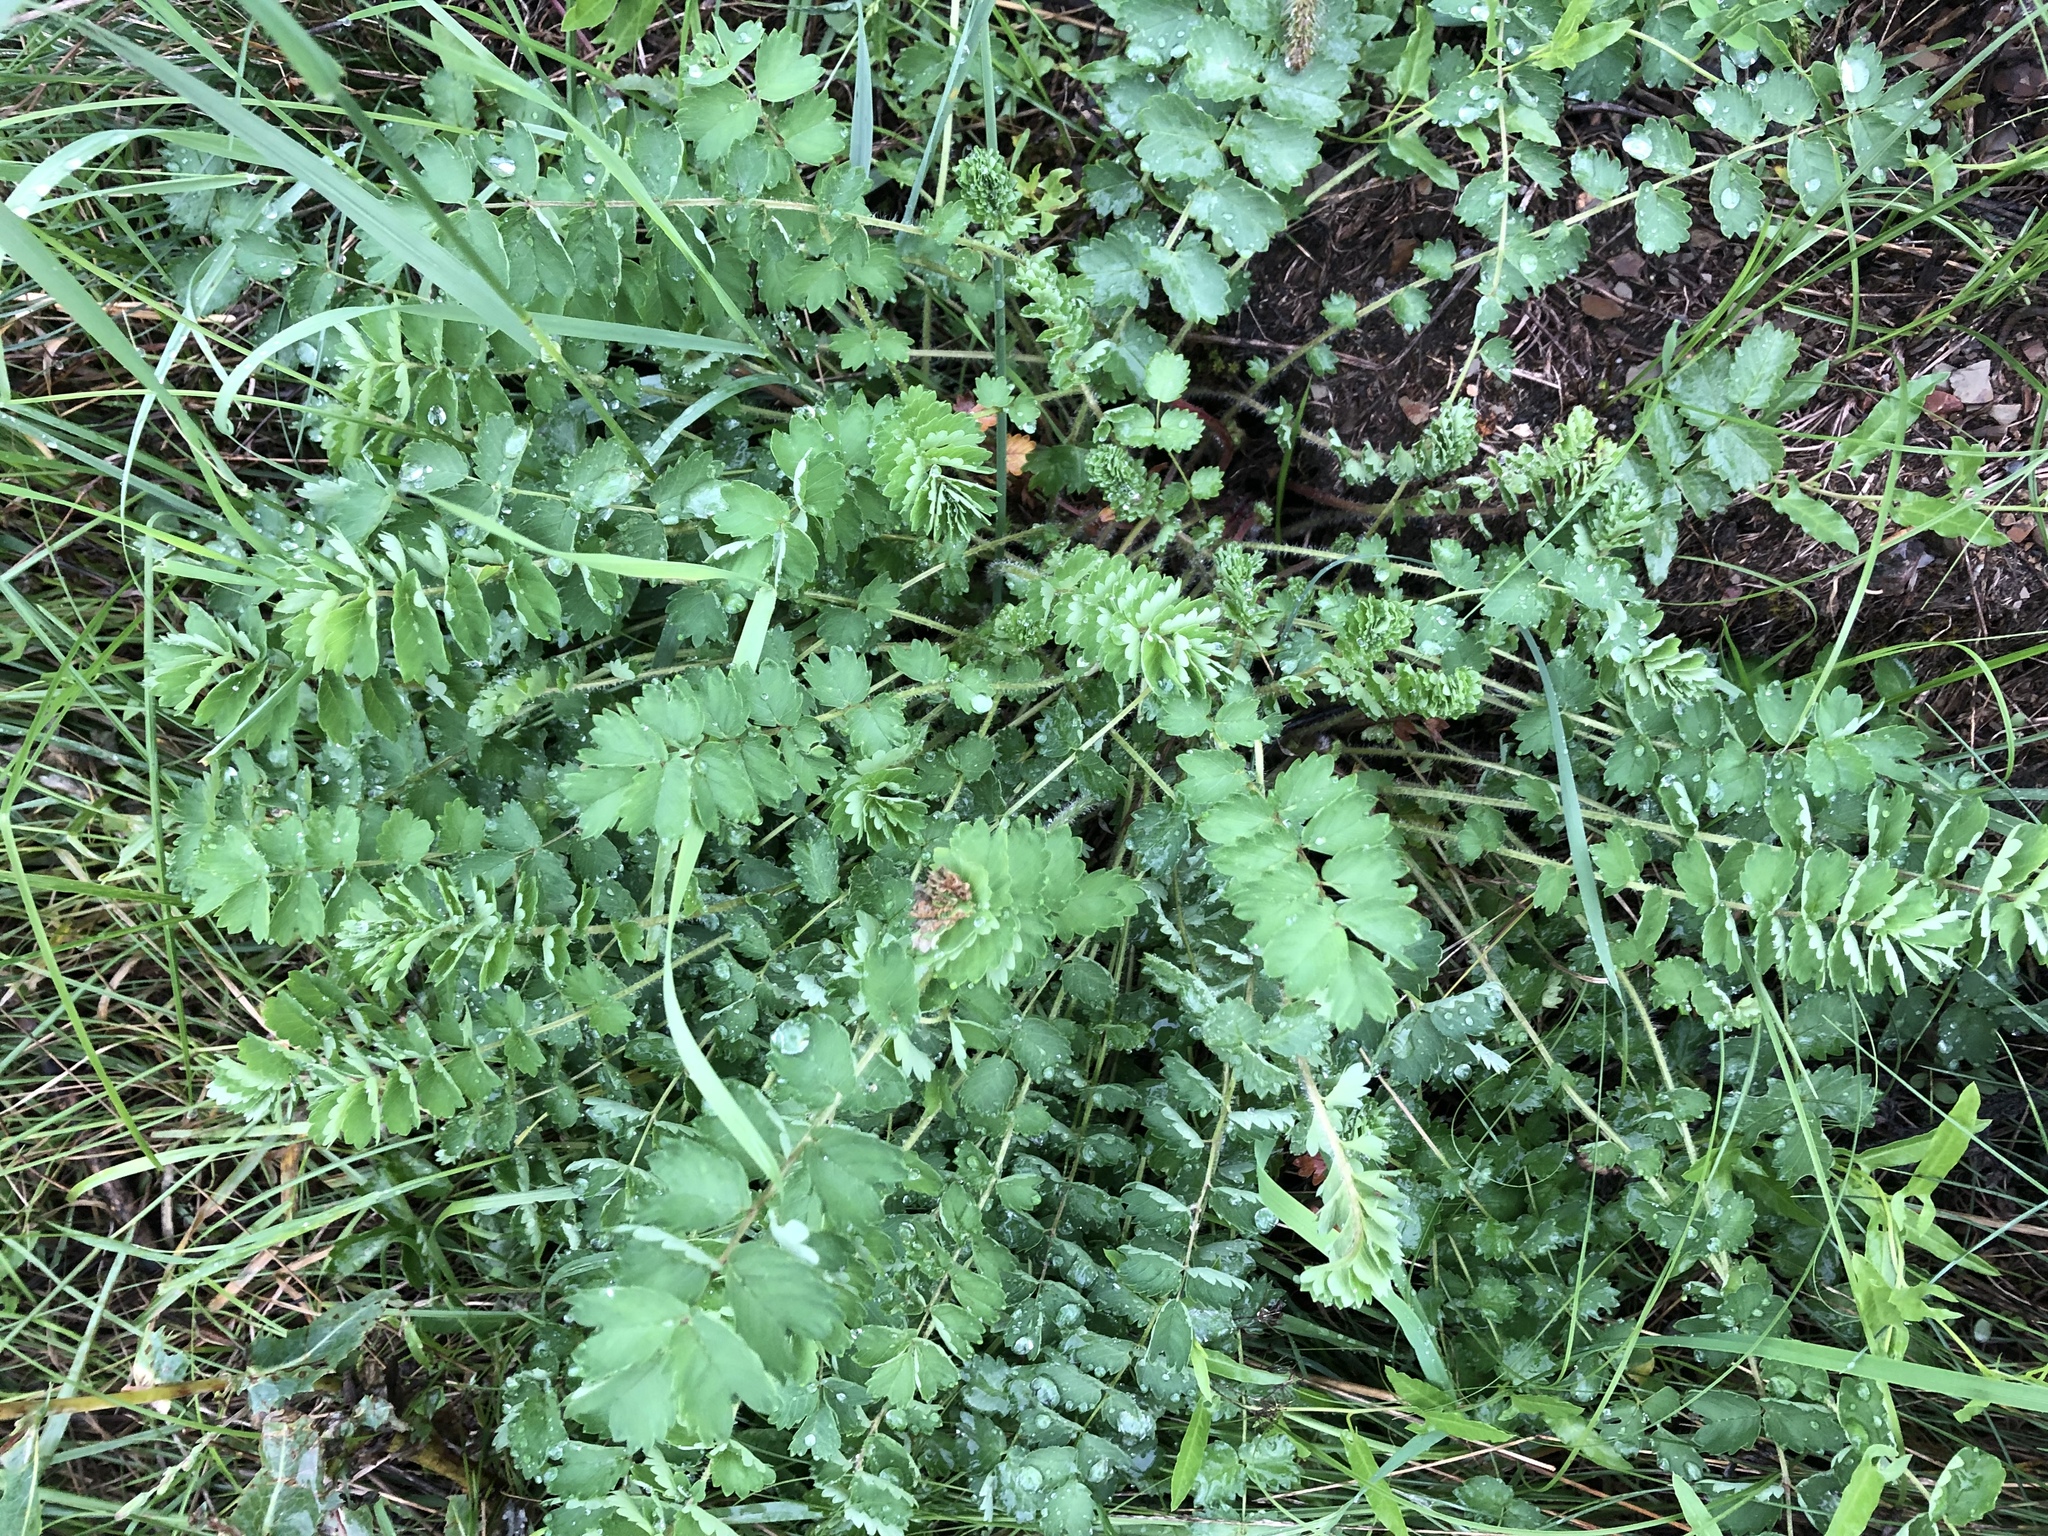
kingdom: Plantae
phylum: Tracheophyta
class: Magnoliopsida
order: Rosales
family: Rosaceae
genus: Poterium
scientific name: Poterium sanguisorba
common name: Salad burnet
